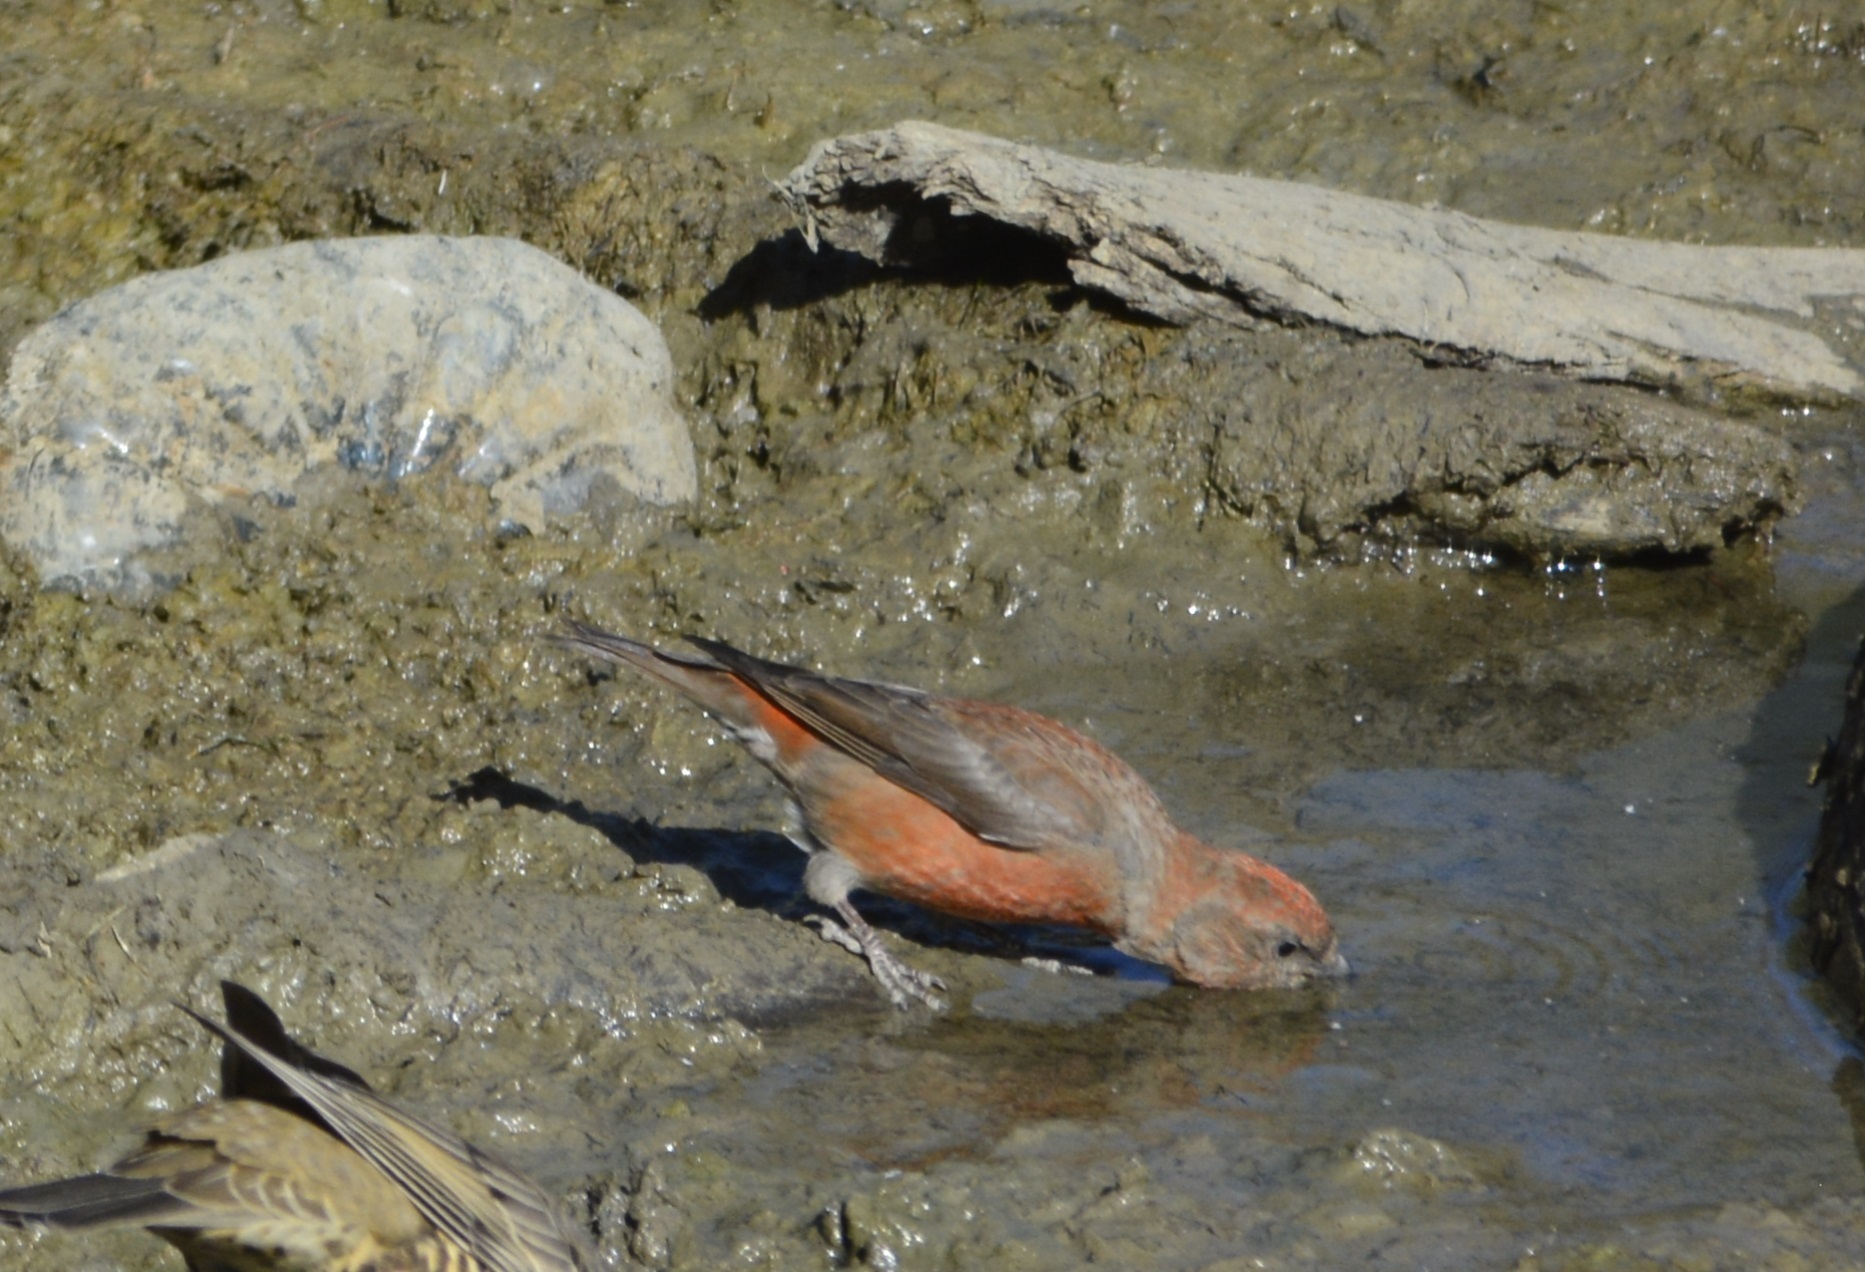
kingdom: Animalia
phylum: Chordata
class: Aves
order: Passeriformes
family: Fringillidae
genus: Loxia
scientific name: Loxia curvirostra
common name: Red crossbill
